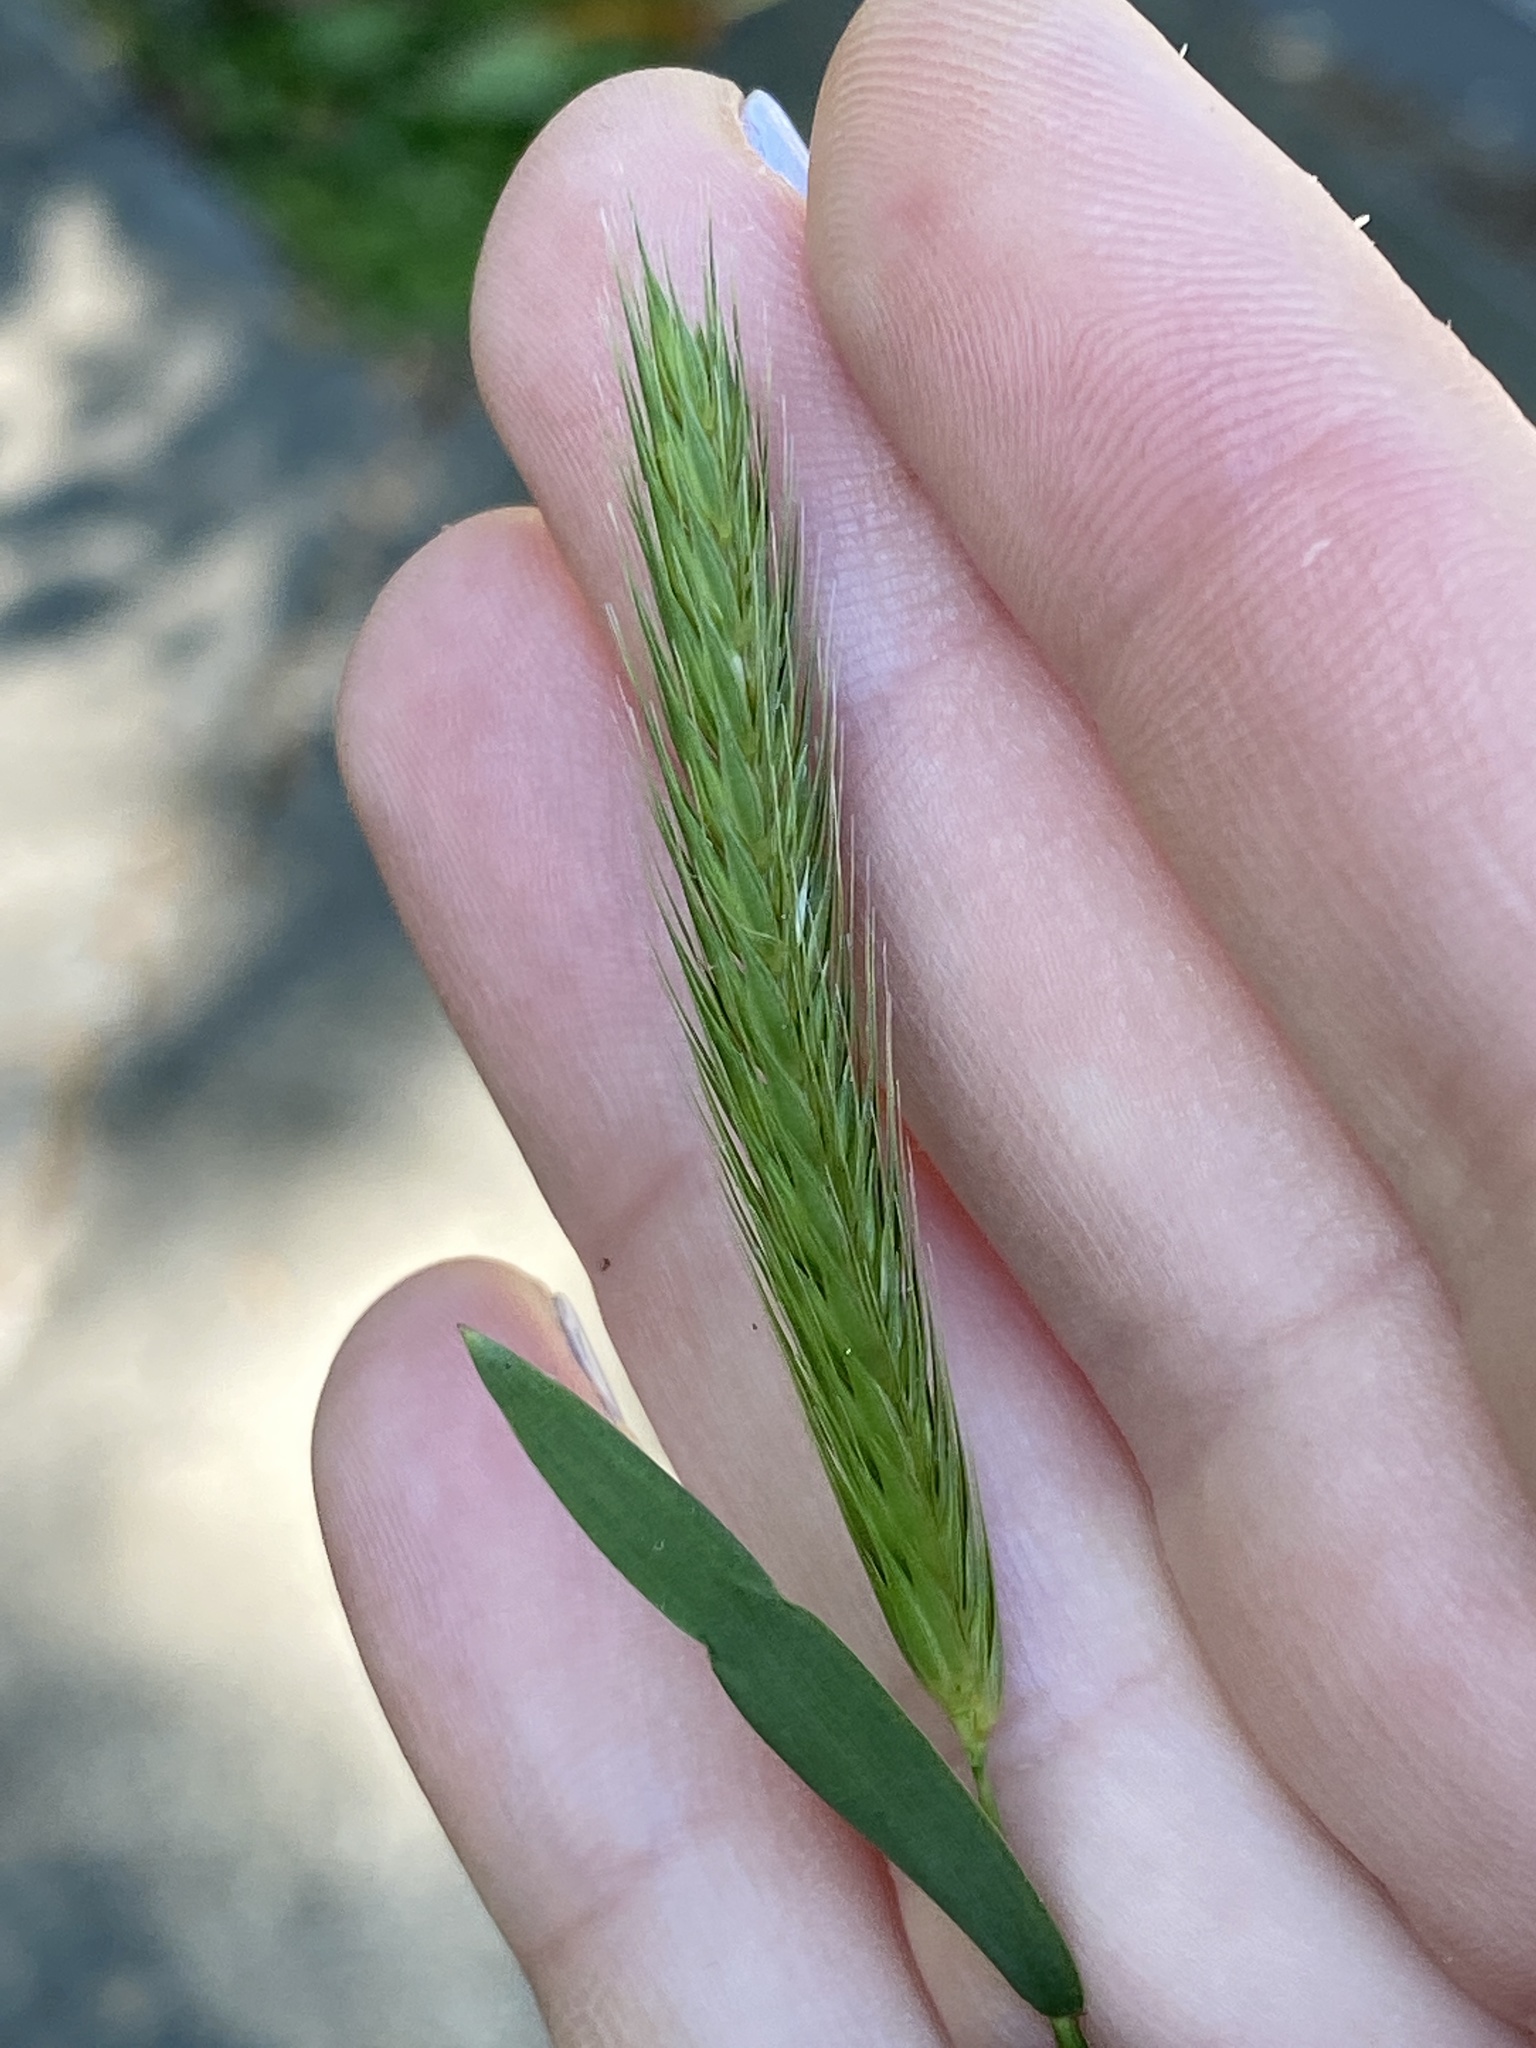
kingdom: Plantae
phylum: Tracheophyta
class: Liliopsida
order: Poales
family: Poaceae
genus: Hordeum
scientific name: Hordeum pusillum
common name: Little barley
